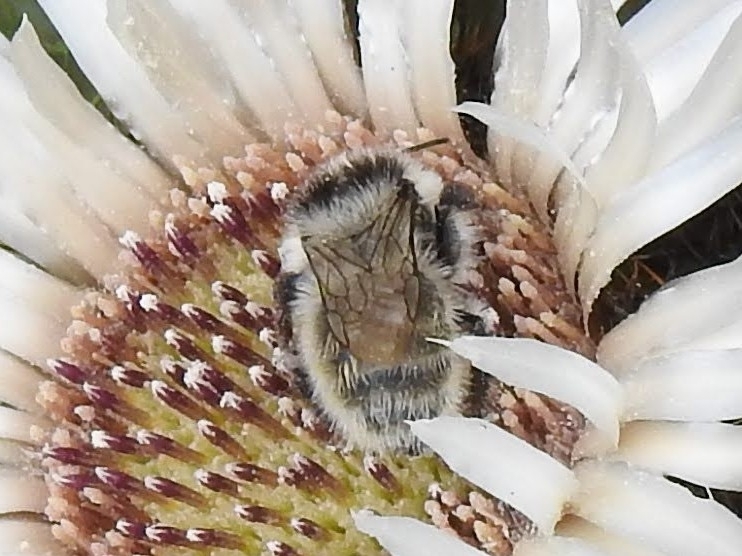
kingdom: Animalia
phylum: Arthropoda
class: Insecta
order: Hymenoptera
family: Apidae
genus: Bombus
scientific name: Bombus mesomelas
